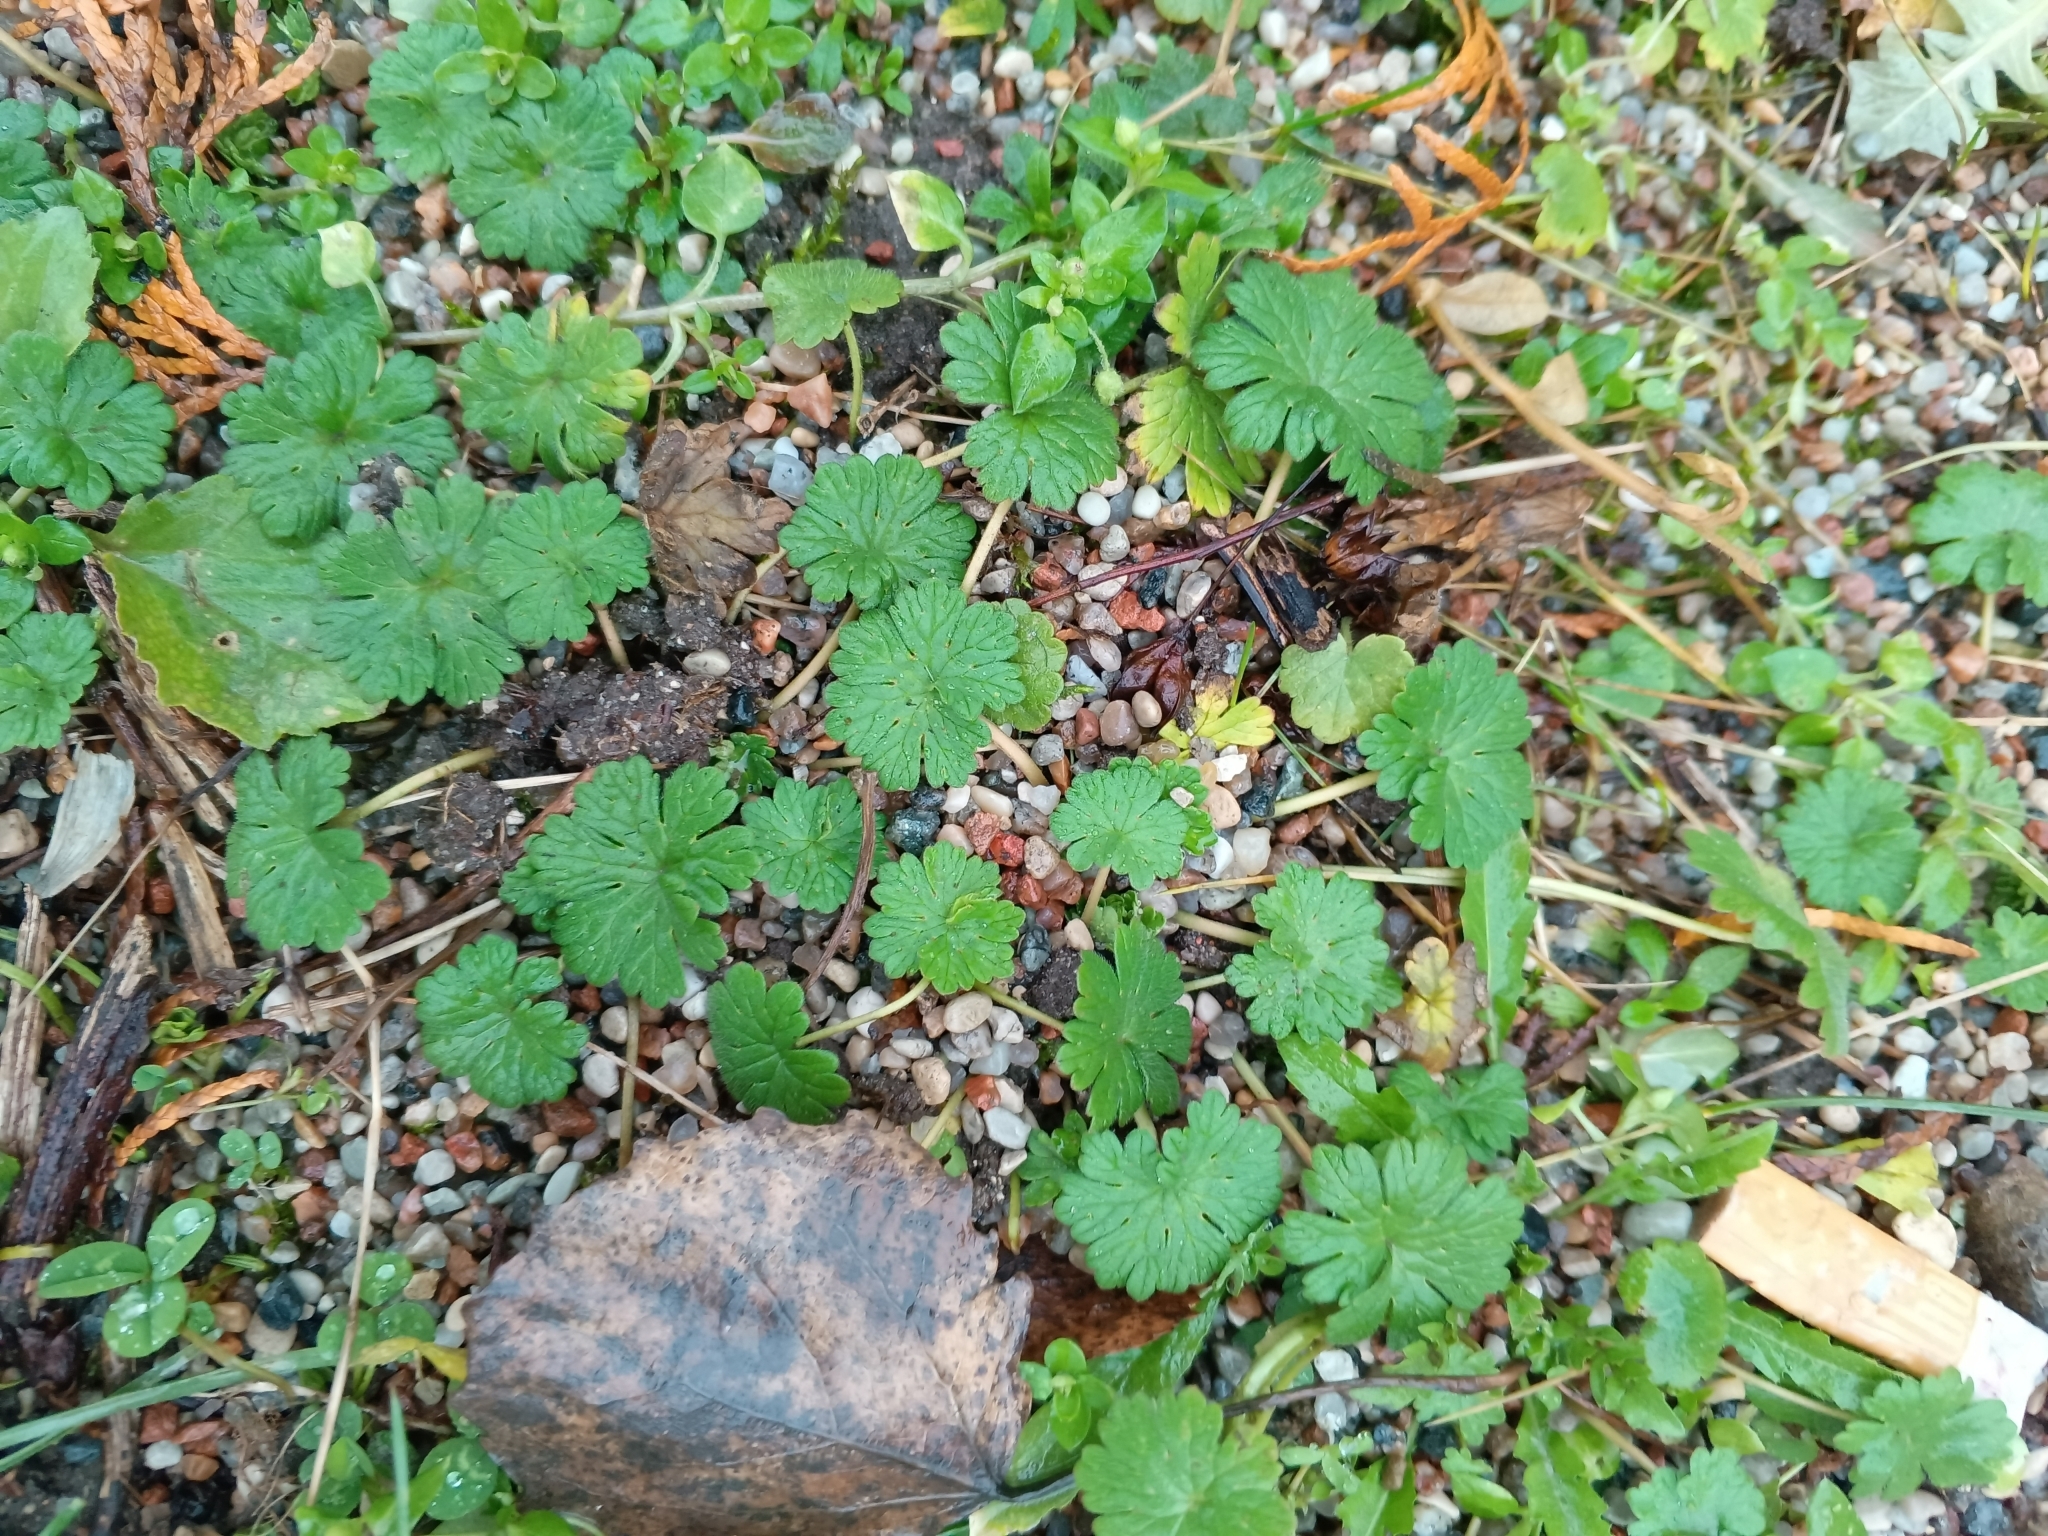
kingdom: Plantae
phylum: Tracheophyta
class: Magnoliopsida
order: Geraniales
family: Geraniaceae
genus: Geranium
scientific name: Geranium pusillum
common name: Small geranium
